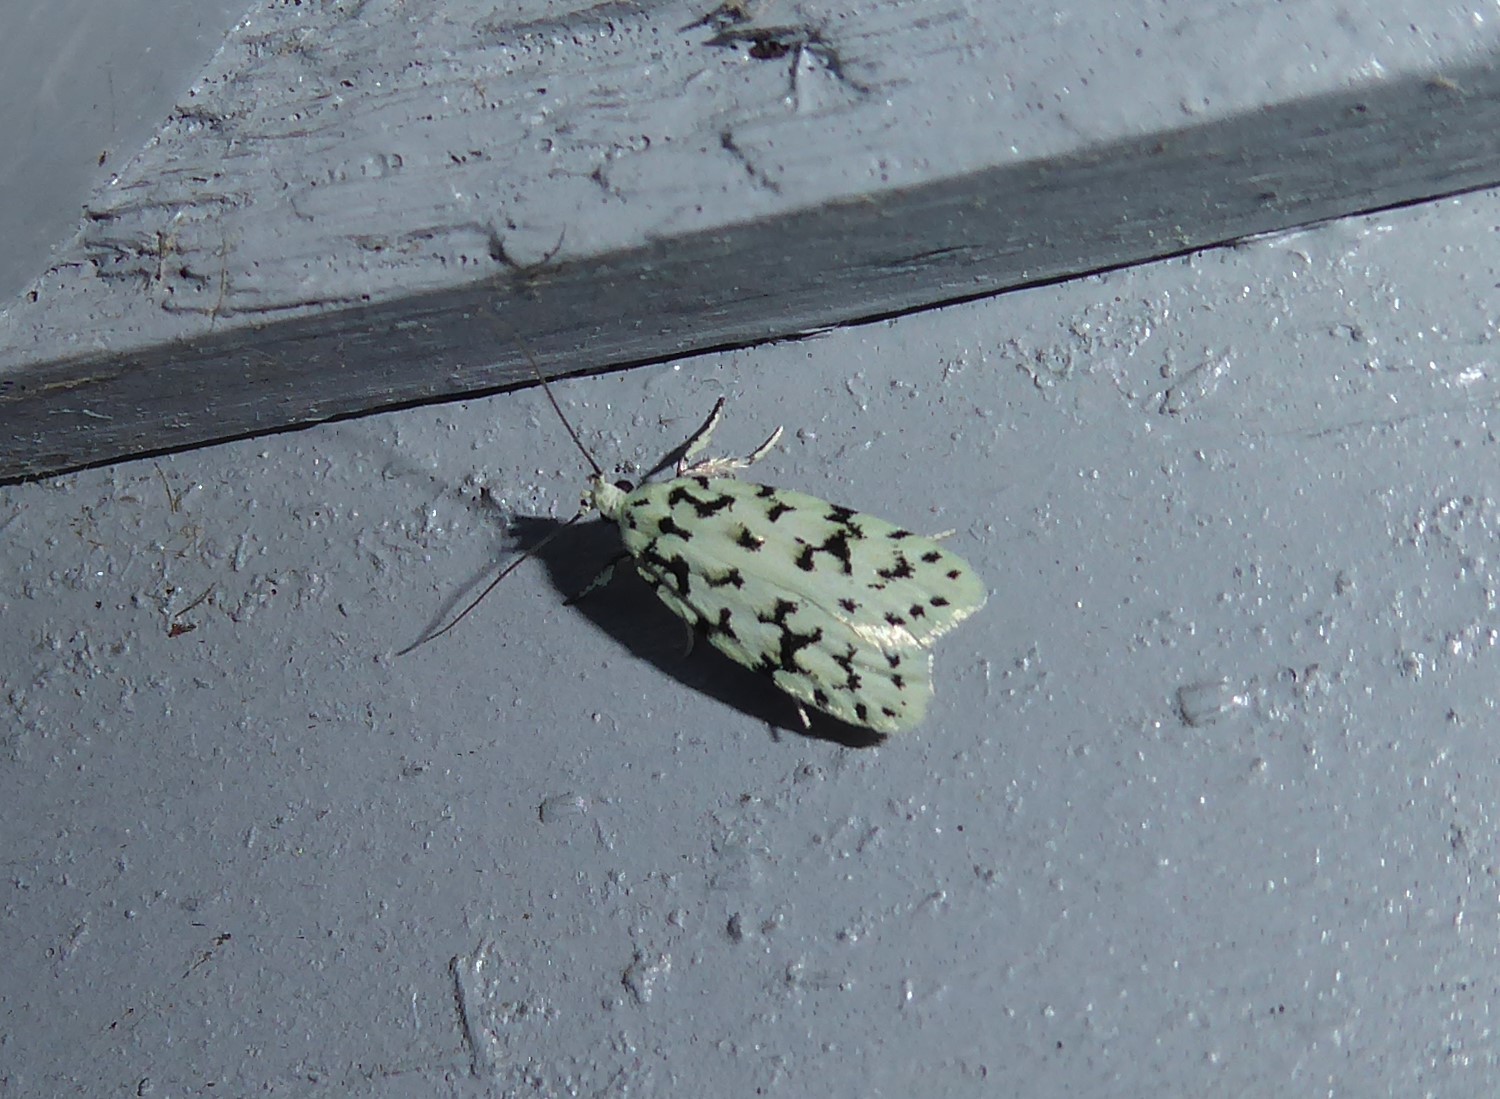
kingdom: Animalia
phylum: Arthropoda
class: Insecta
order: Lepidoptera
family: Oecophoridae
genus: Izatha
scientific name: Izatha huttoni
